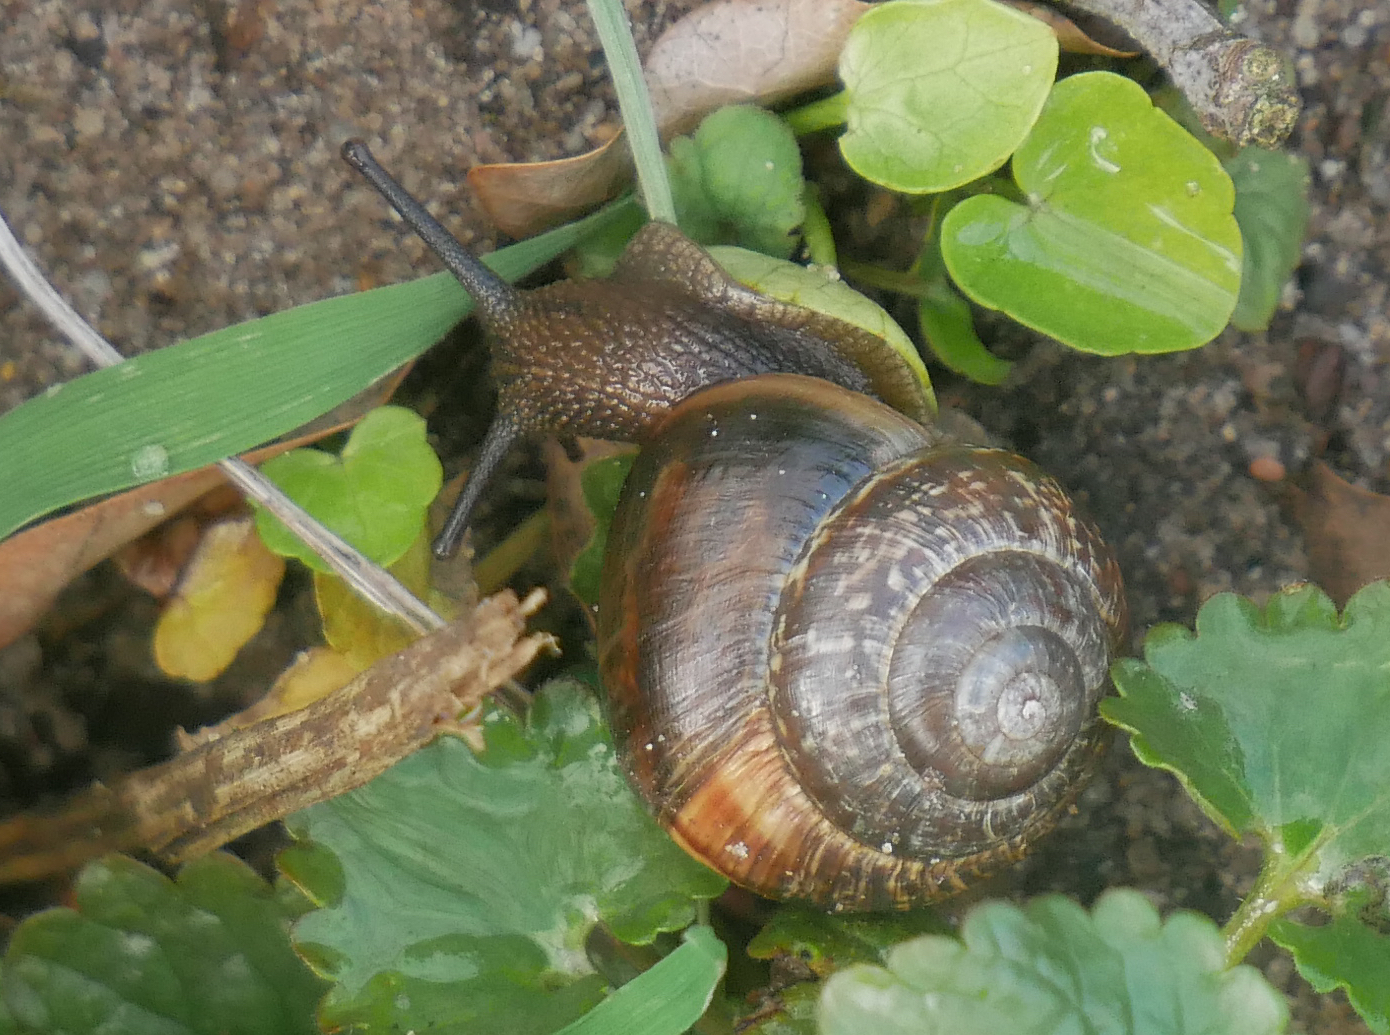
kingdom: Animalia
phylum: Mollusca
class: Gastropoda
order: Stylommatophora
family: Helicidae
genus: Arianta
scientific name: Arianta arbustorum
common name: Copse snail
